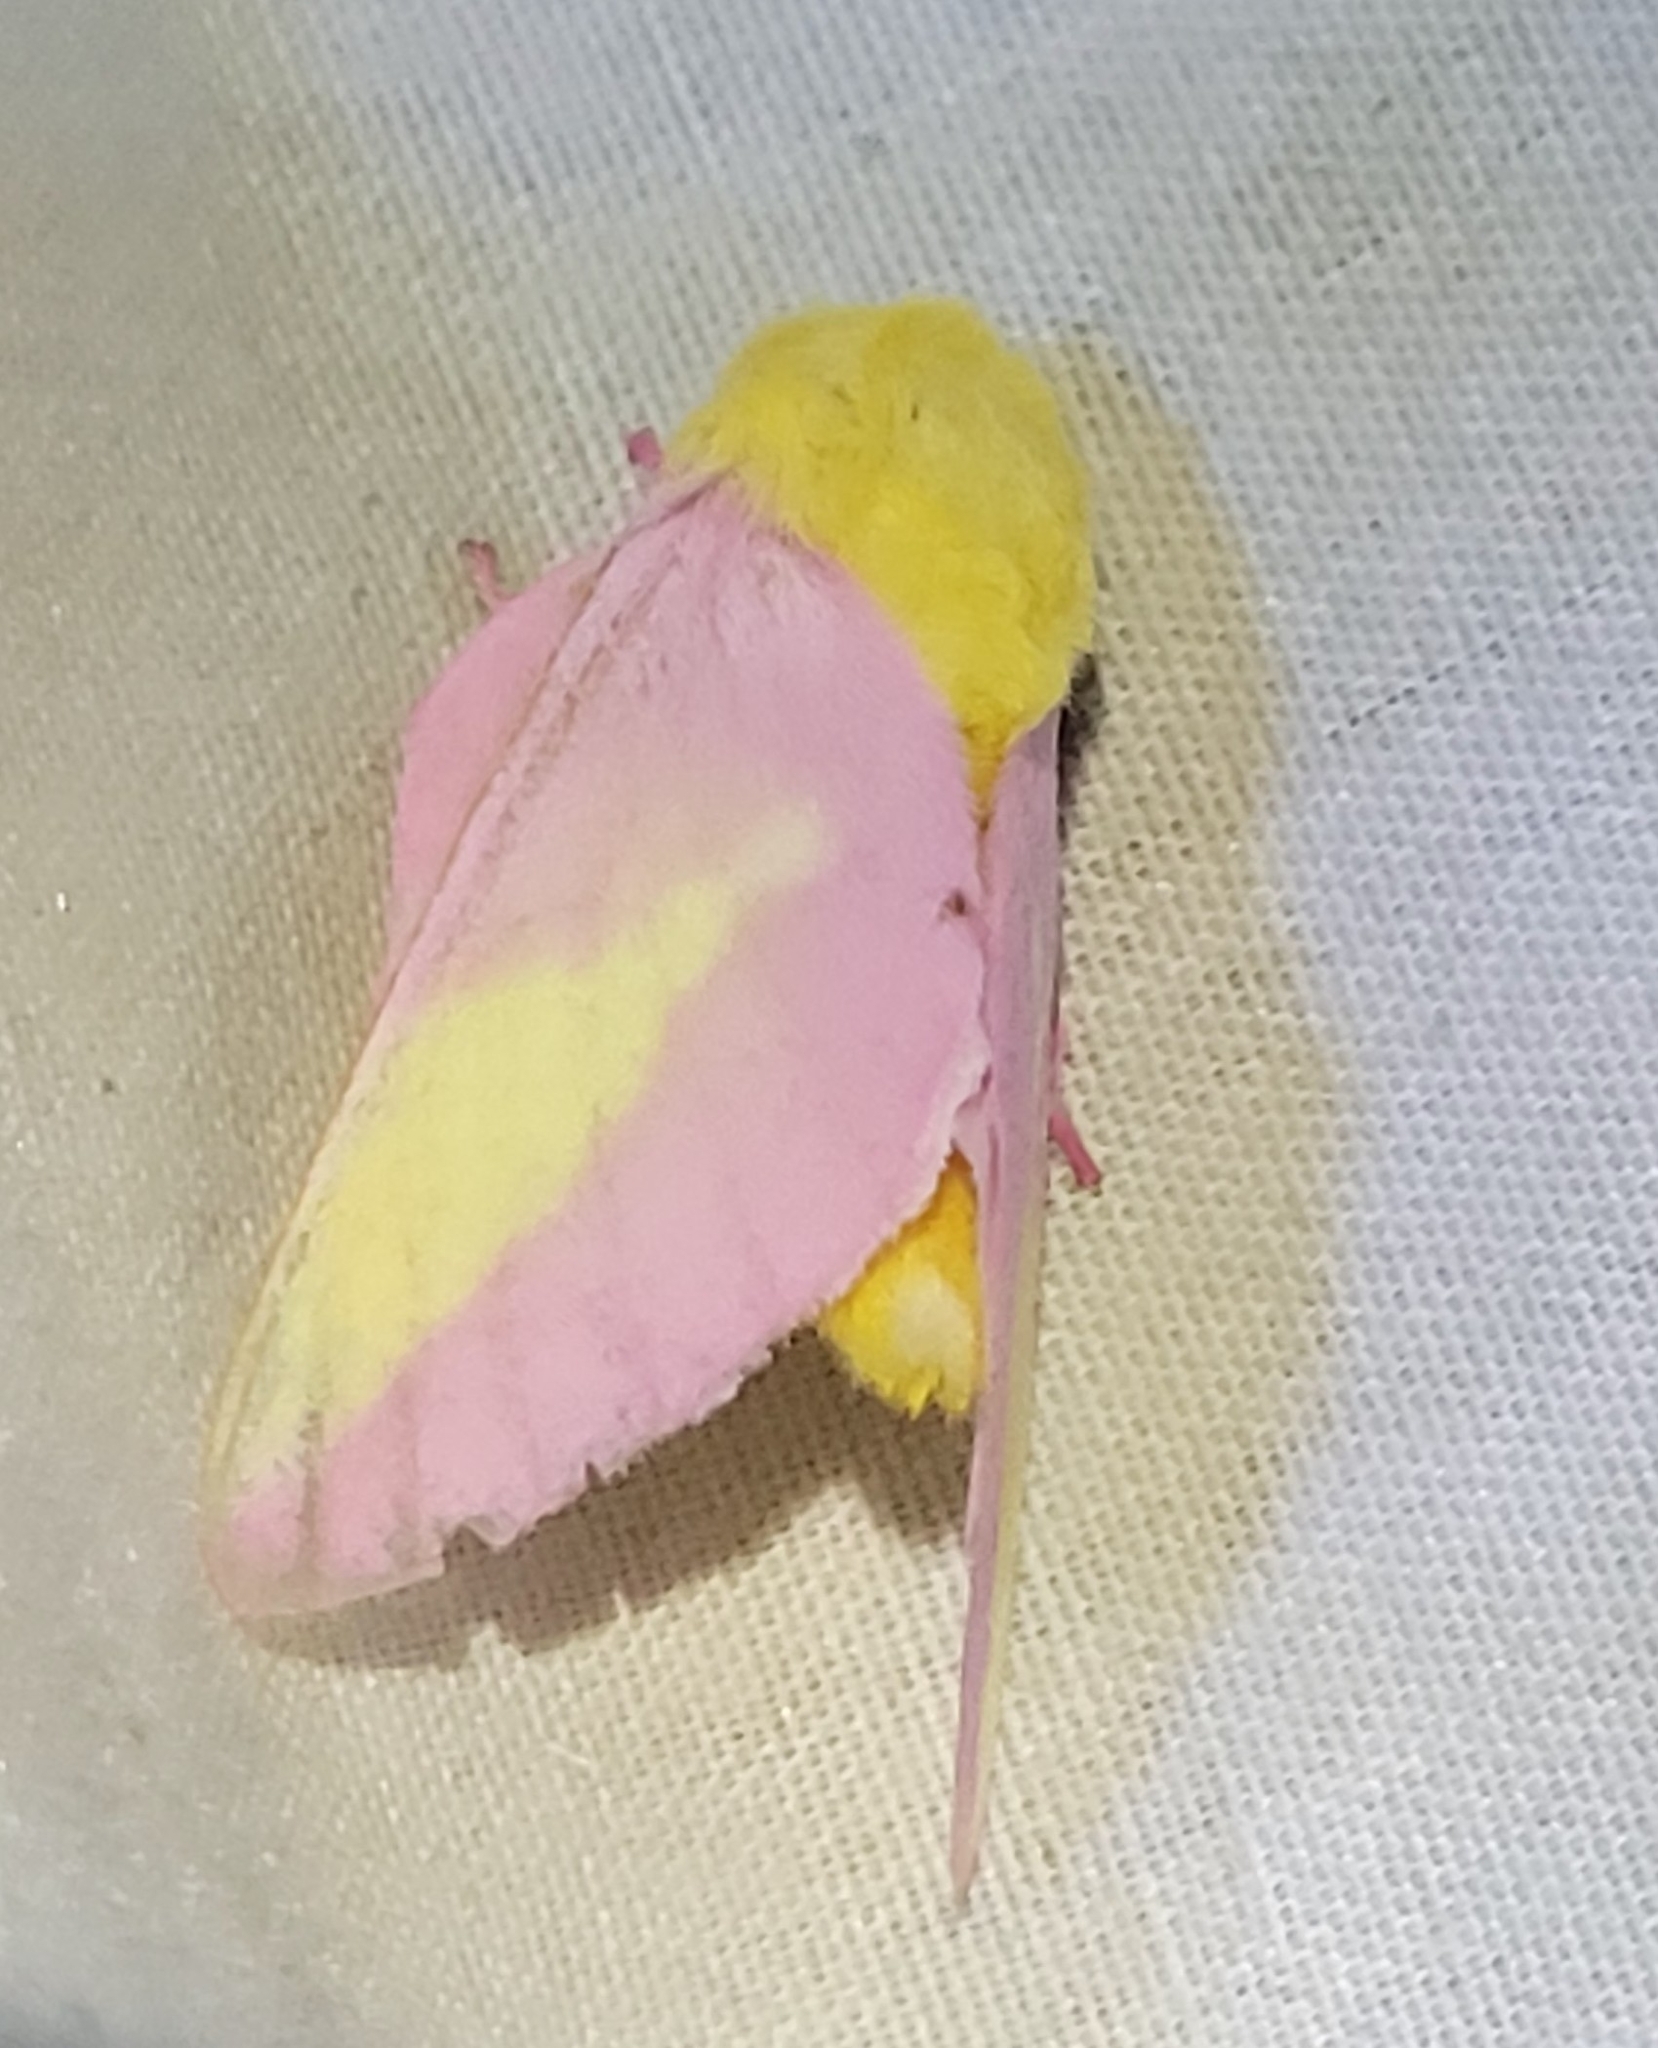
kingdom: Animalia
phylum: Arthropoda
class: Insecta
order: Lepidoptera
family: Saturniidae
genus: Dryocampa
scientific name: Dryocampa rubicunda
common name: Rosy maple moth
